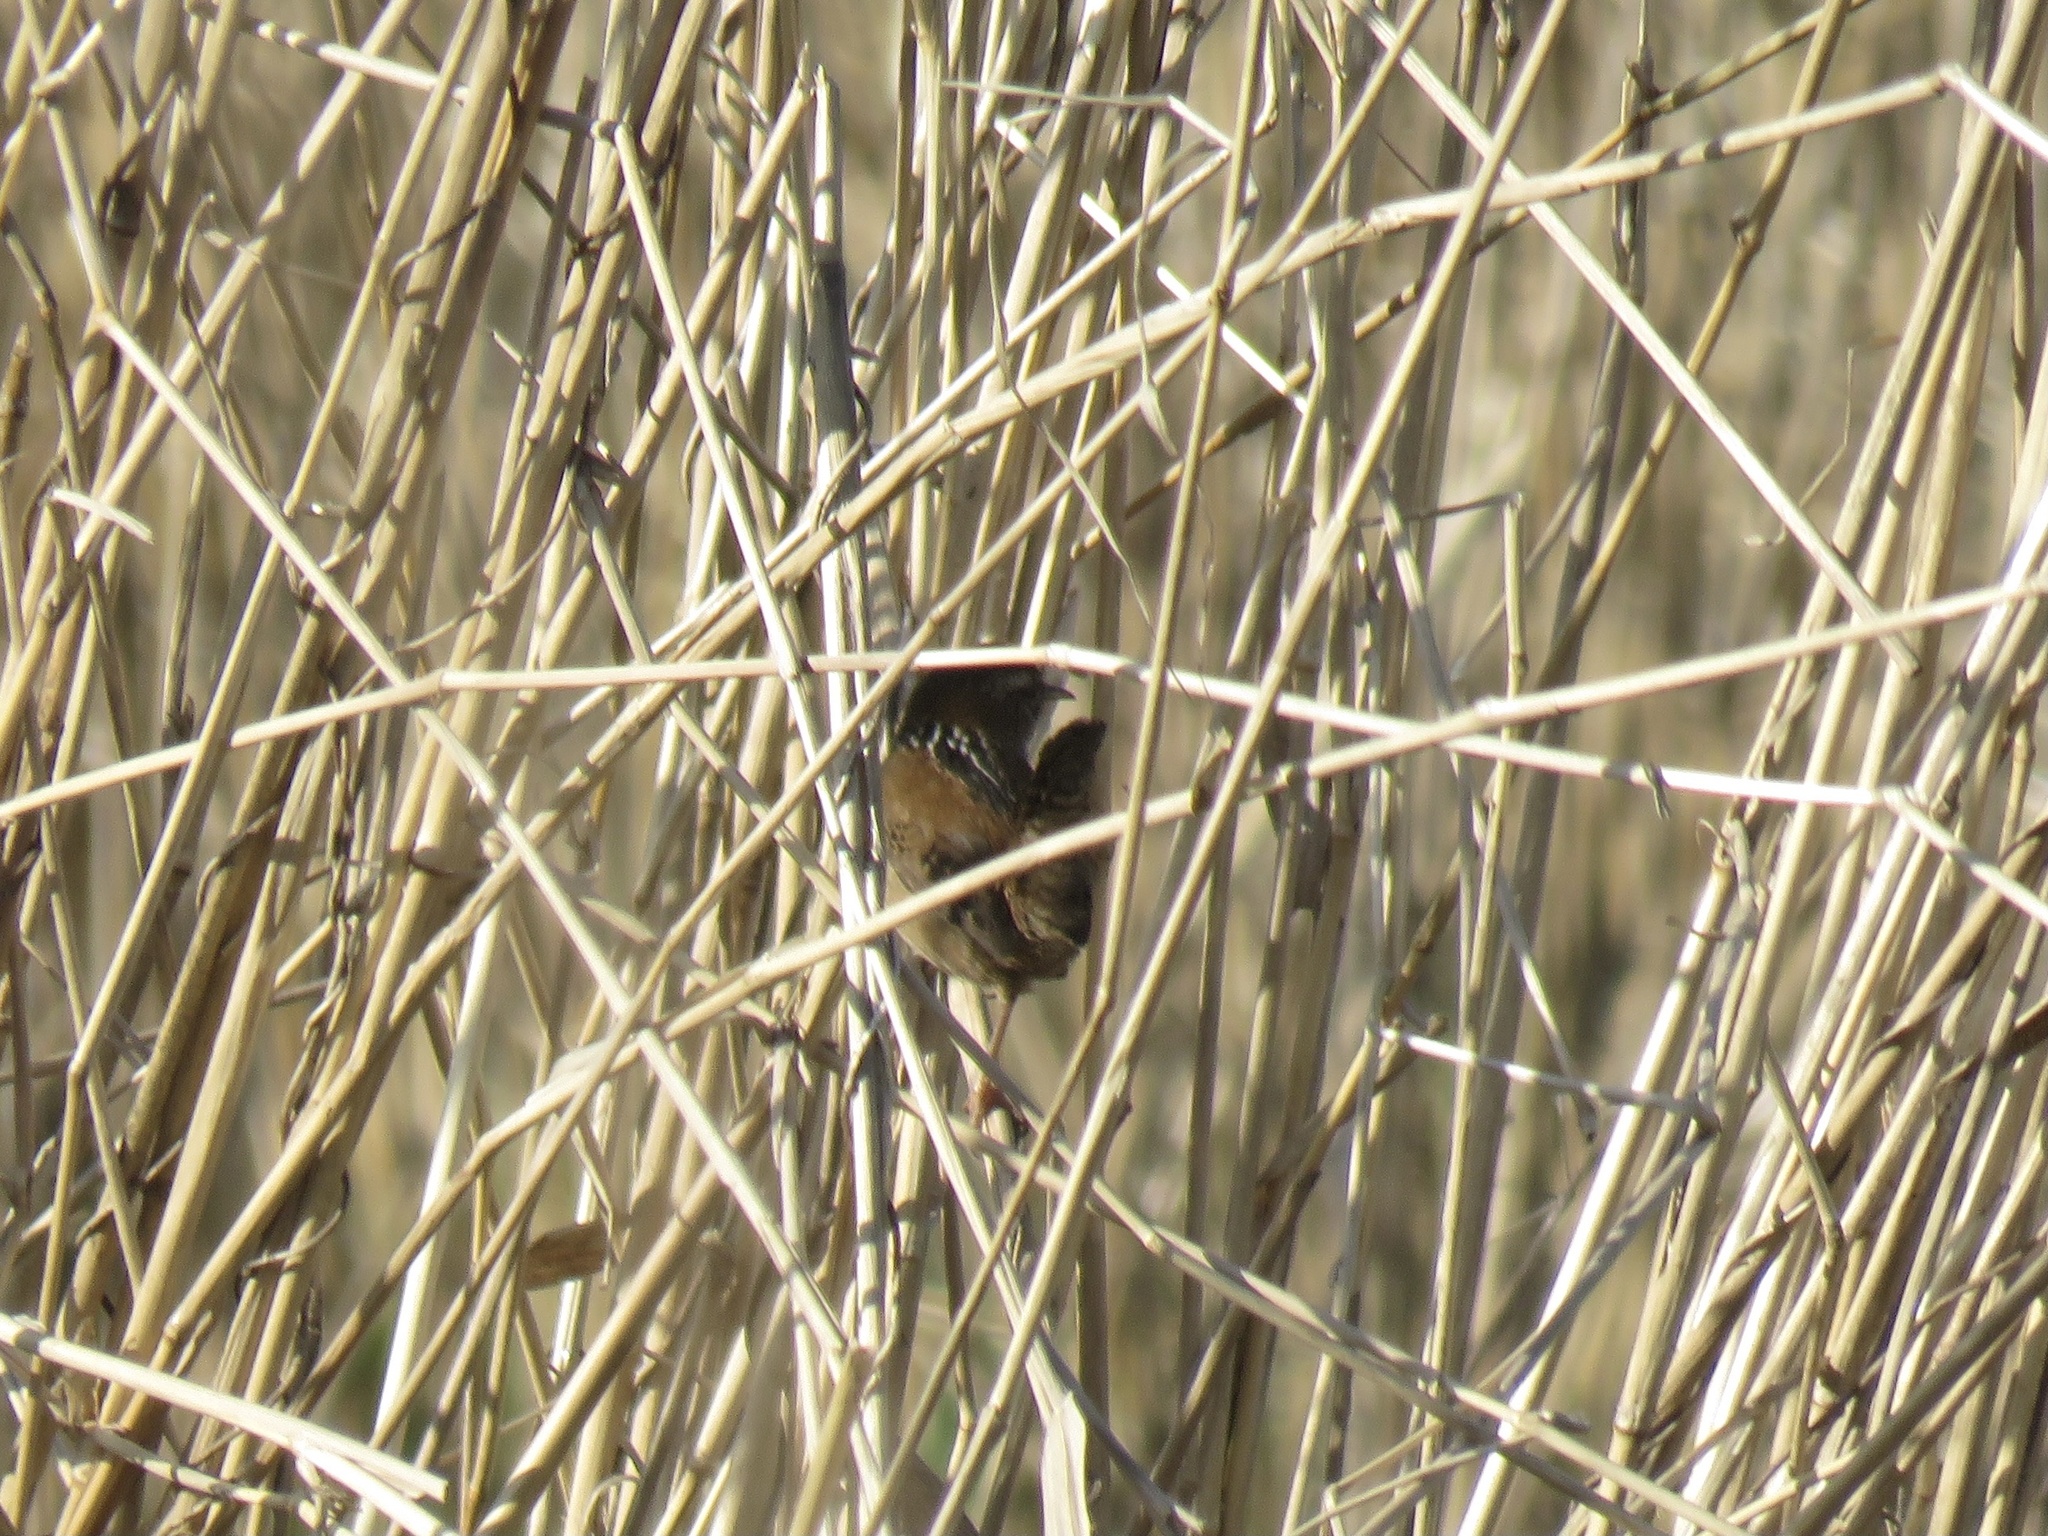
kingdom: Animalia
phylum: Chordata
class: Aves
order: Passeriformes
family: Troglodytidae
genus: Cistothorus
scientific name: Cistothorus palustris
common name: Marsh wren
